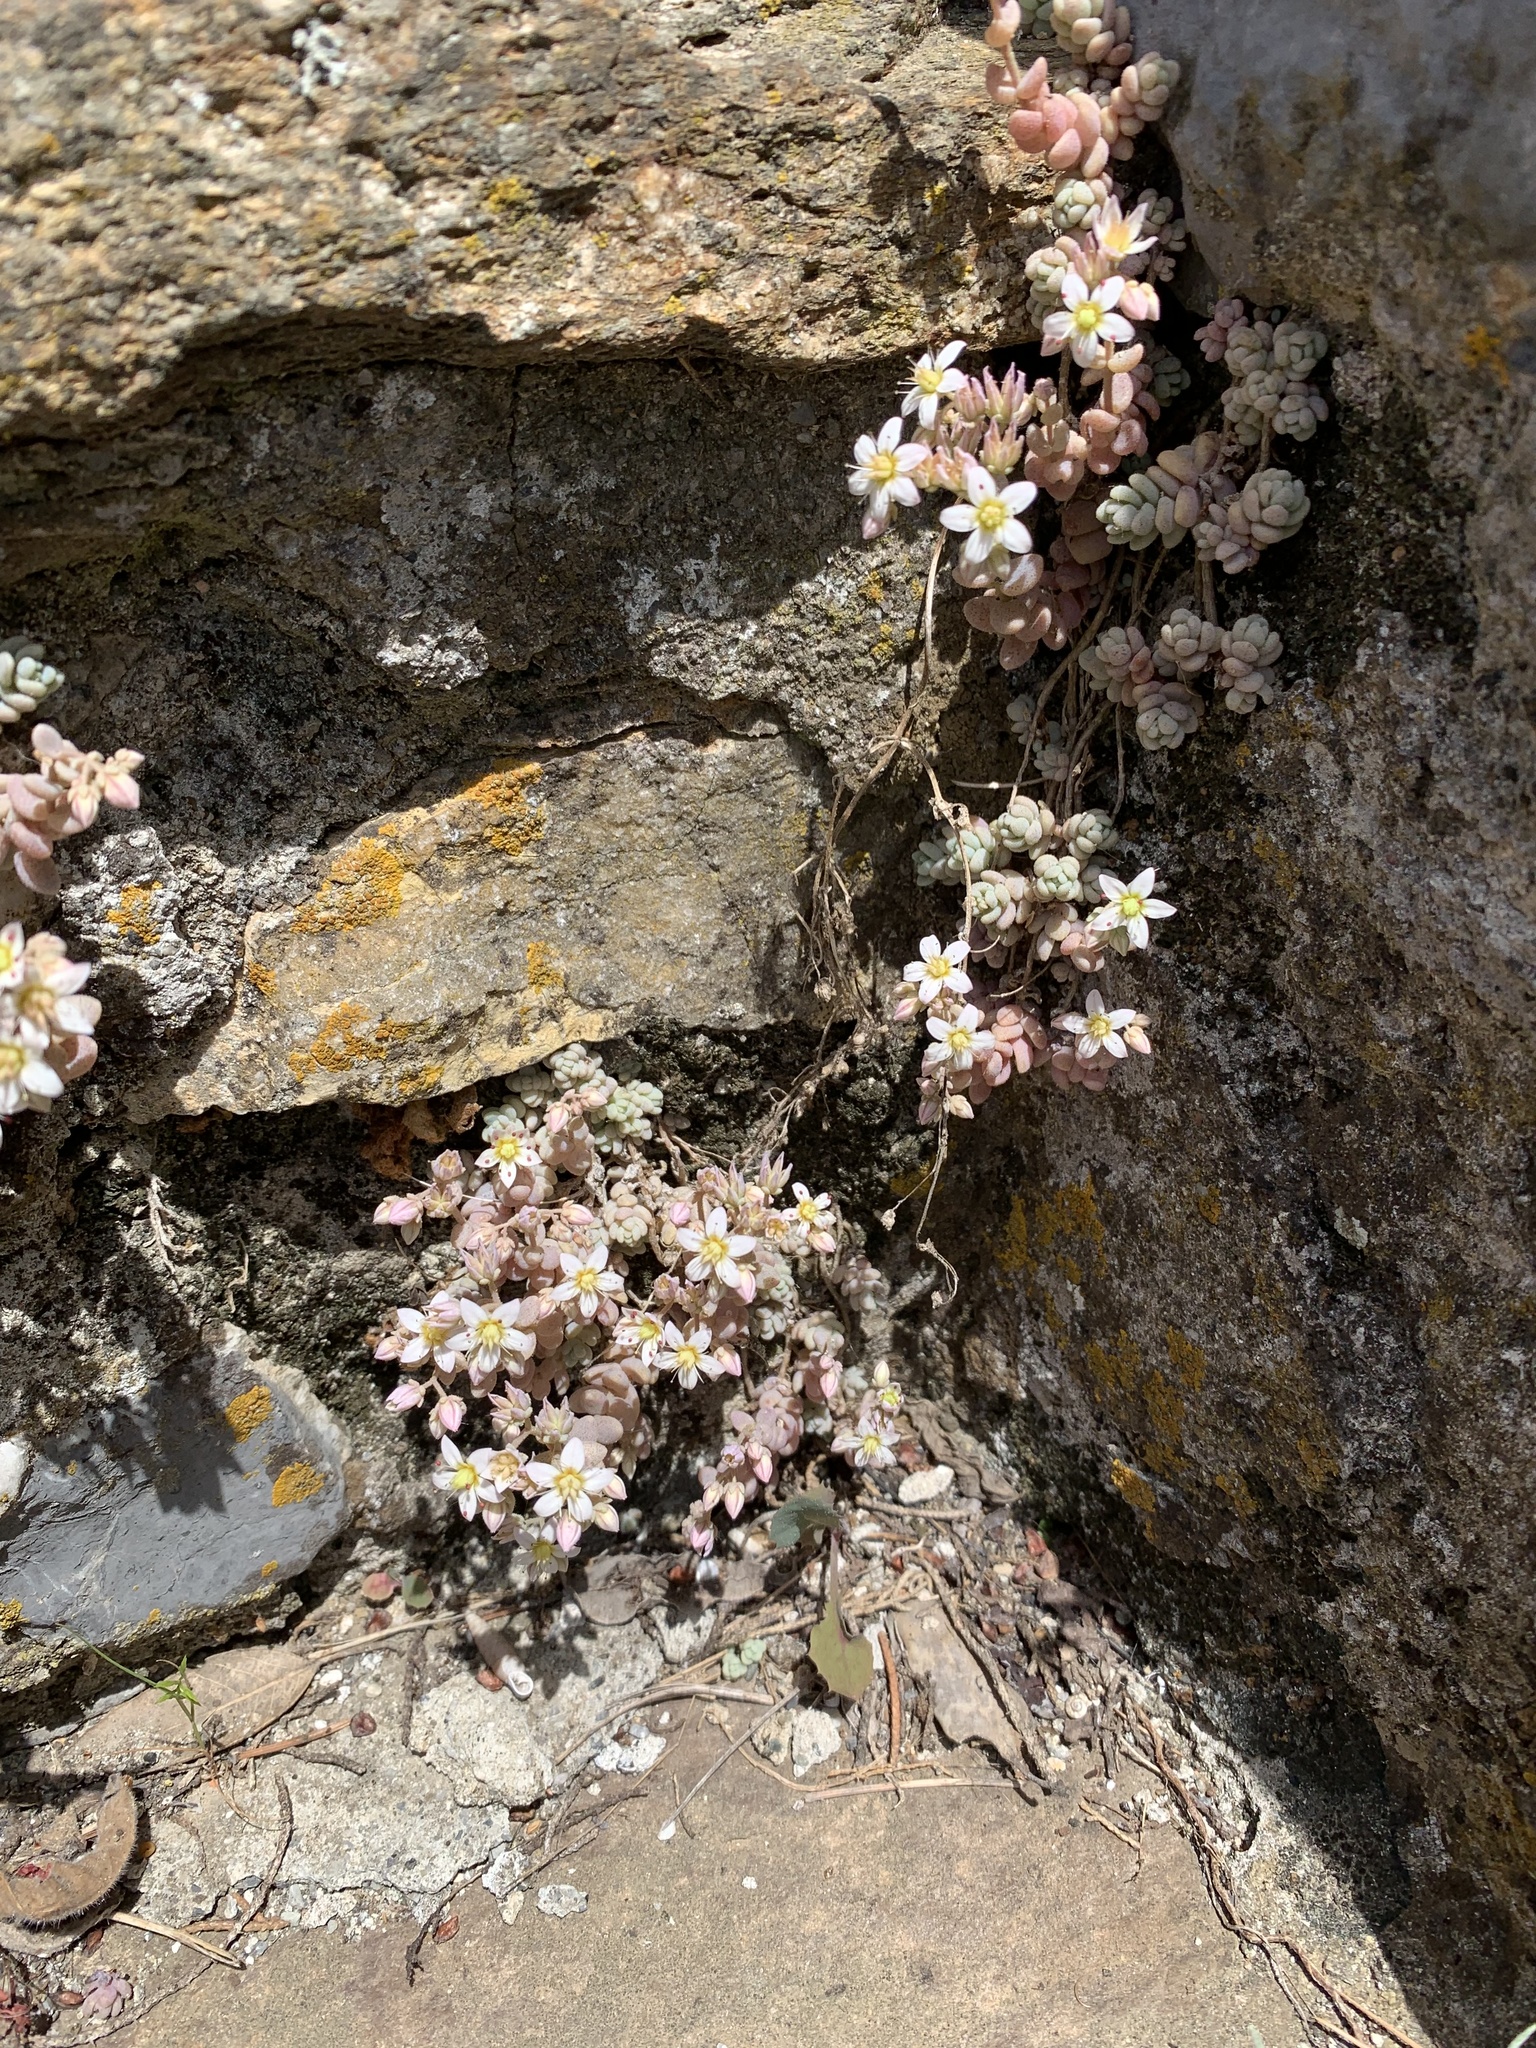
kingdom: Plantae
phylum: Tracheophyta
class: Magnoliopsida
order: Saxifragales
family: Crassulaceae
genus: Sedum
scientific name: Sedum dasyphyllum
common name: Thick-leaf stonecrop
